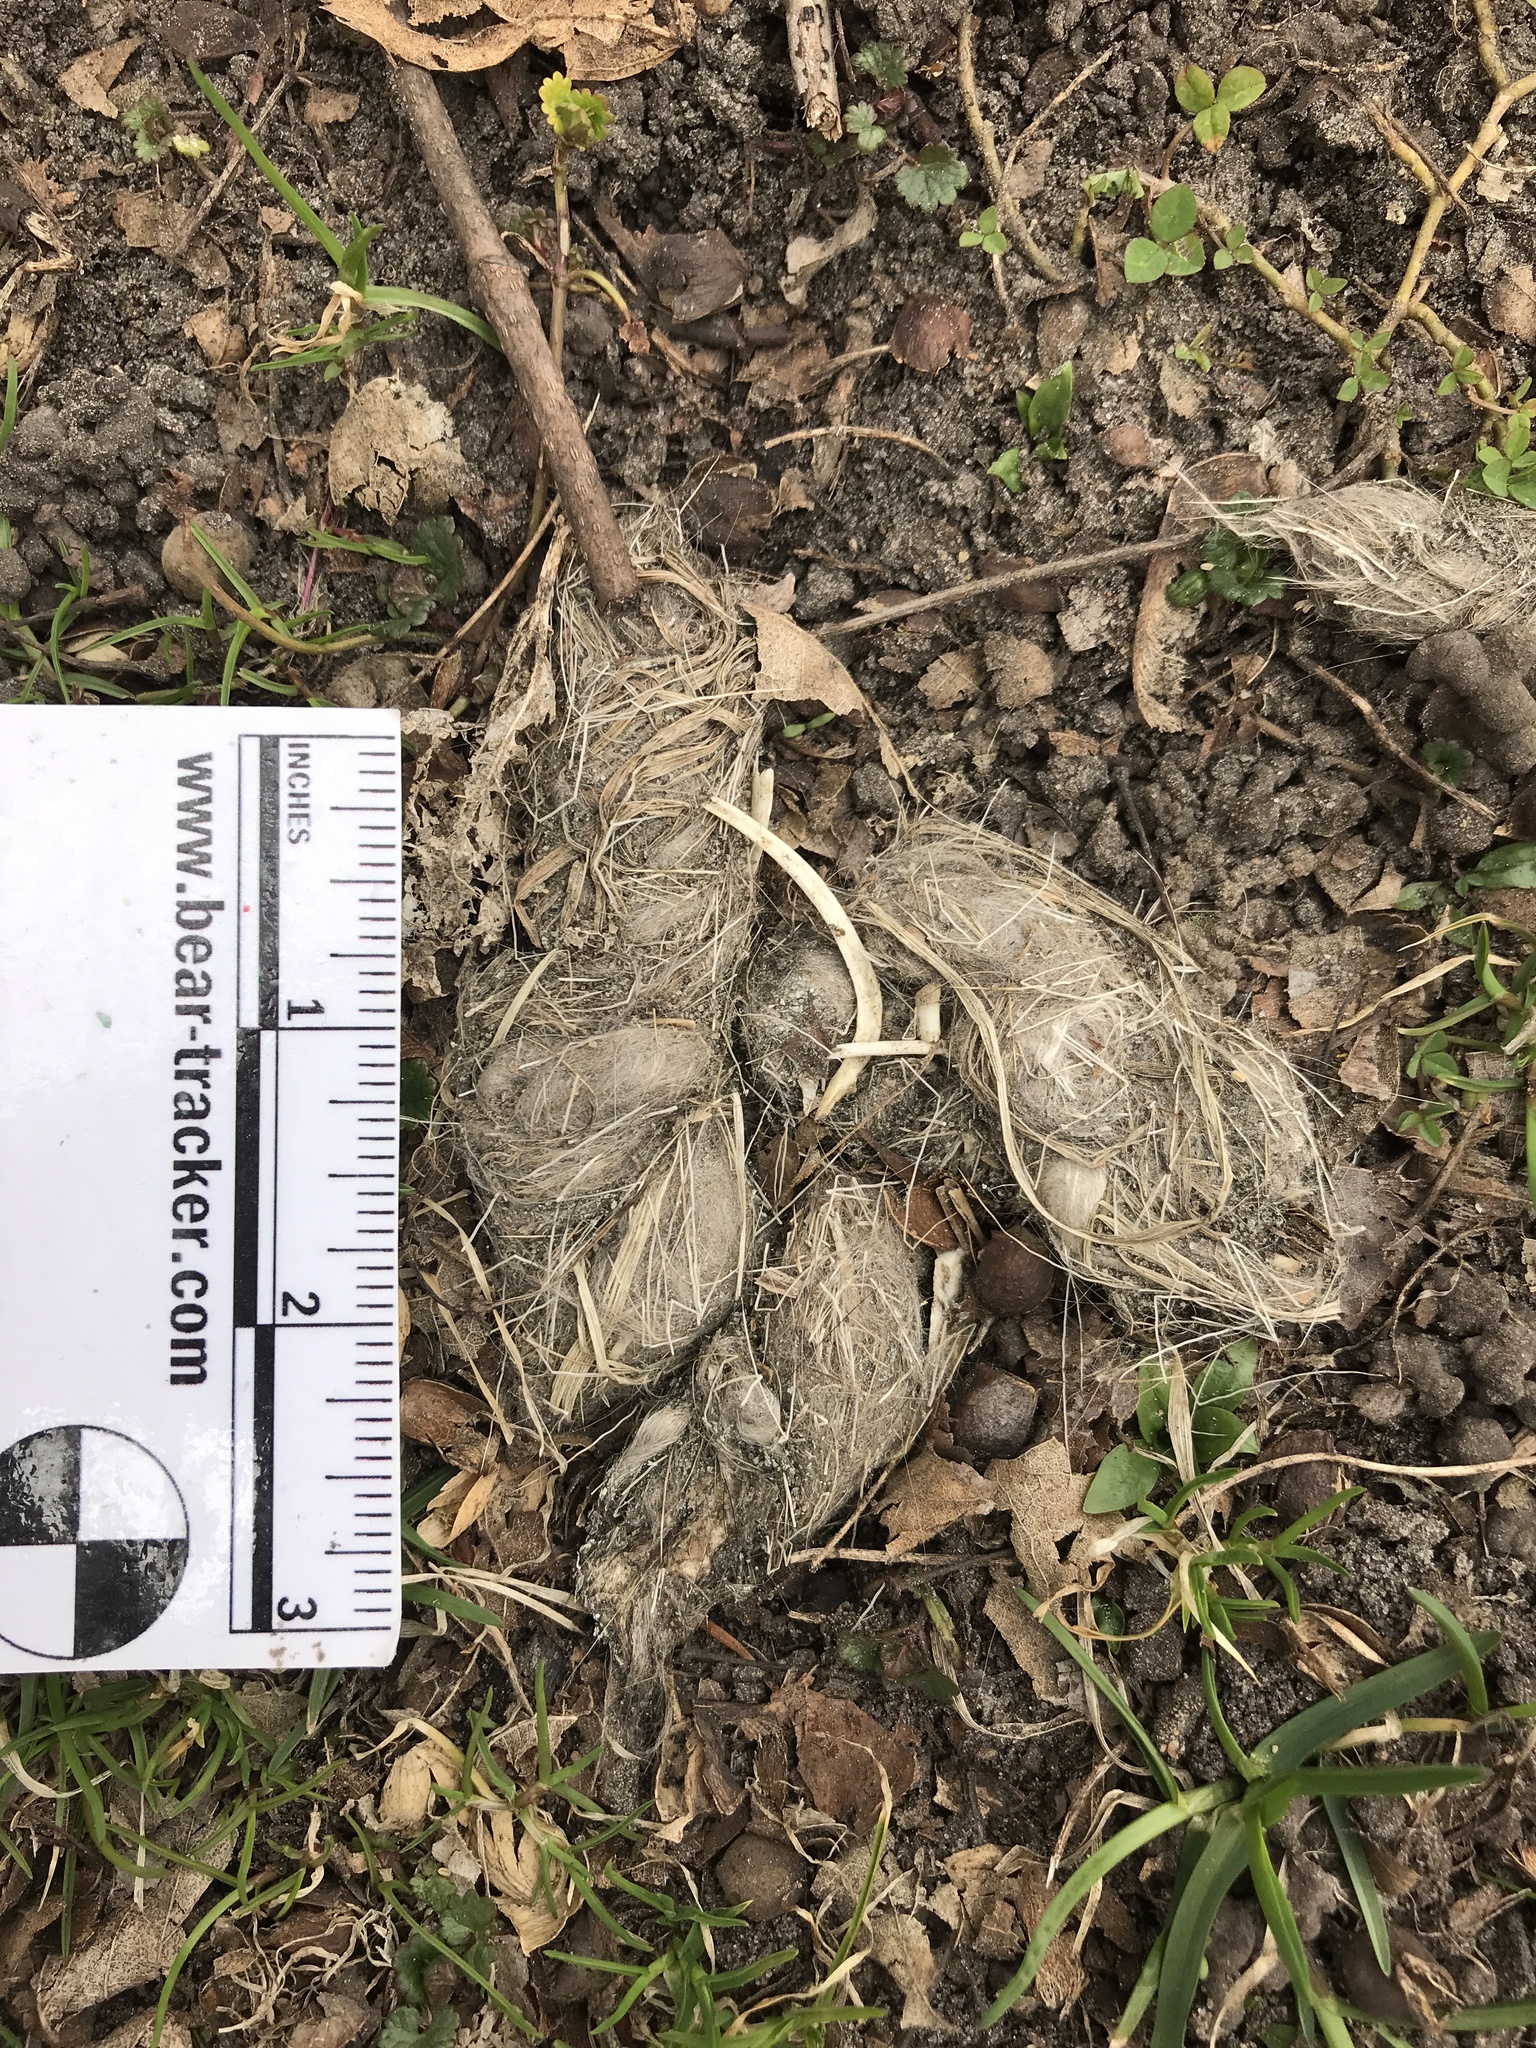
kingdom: Animalia
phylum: Chordata
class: Mammalia
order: Carnivora
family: Canidae
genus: Canis
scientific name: Canis latrans
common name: Coyote
